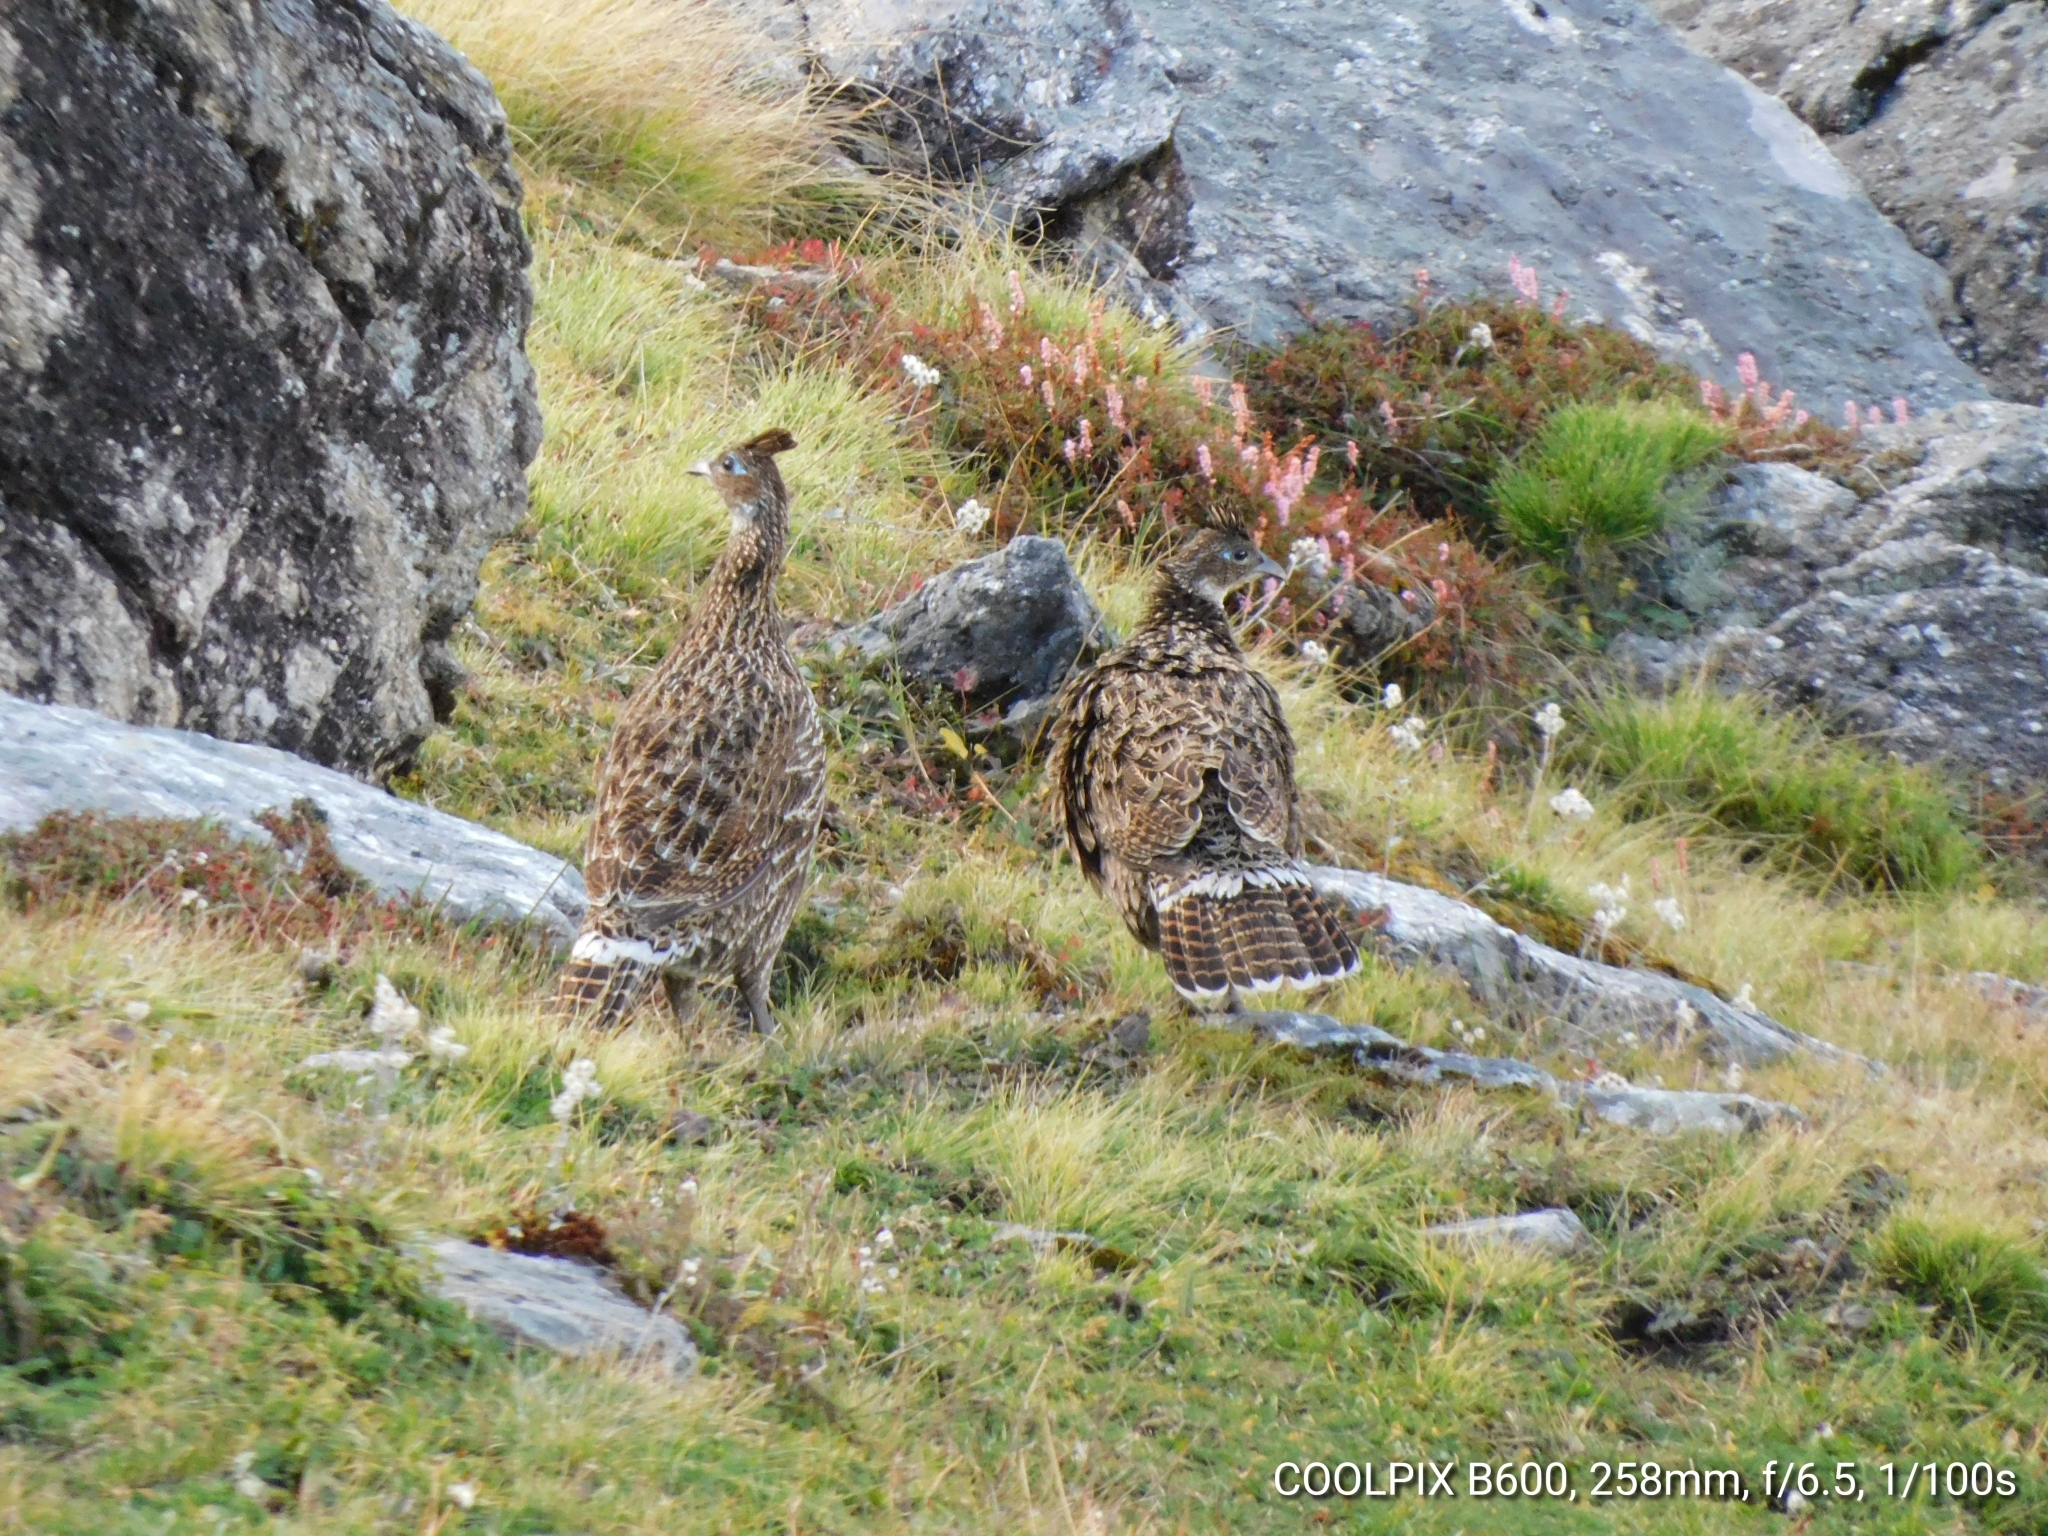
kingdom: Animalia
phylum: Chordata
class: Aves
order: Galliformes
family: Phasianidae
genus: Lophophorus
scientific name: Lophophorus impejanus
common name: Himalayan monal
